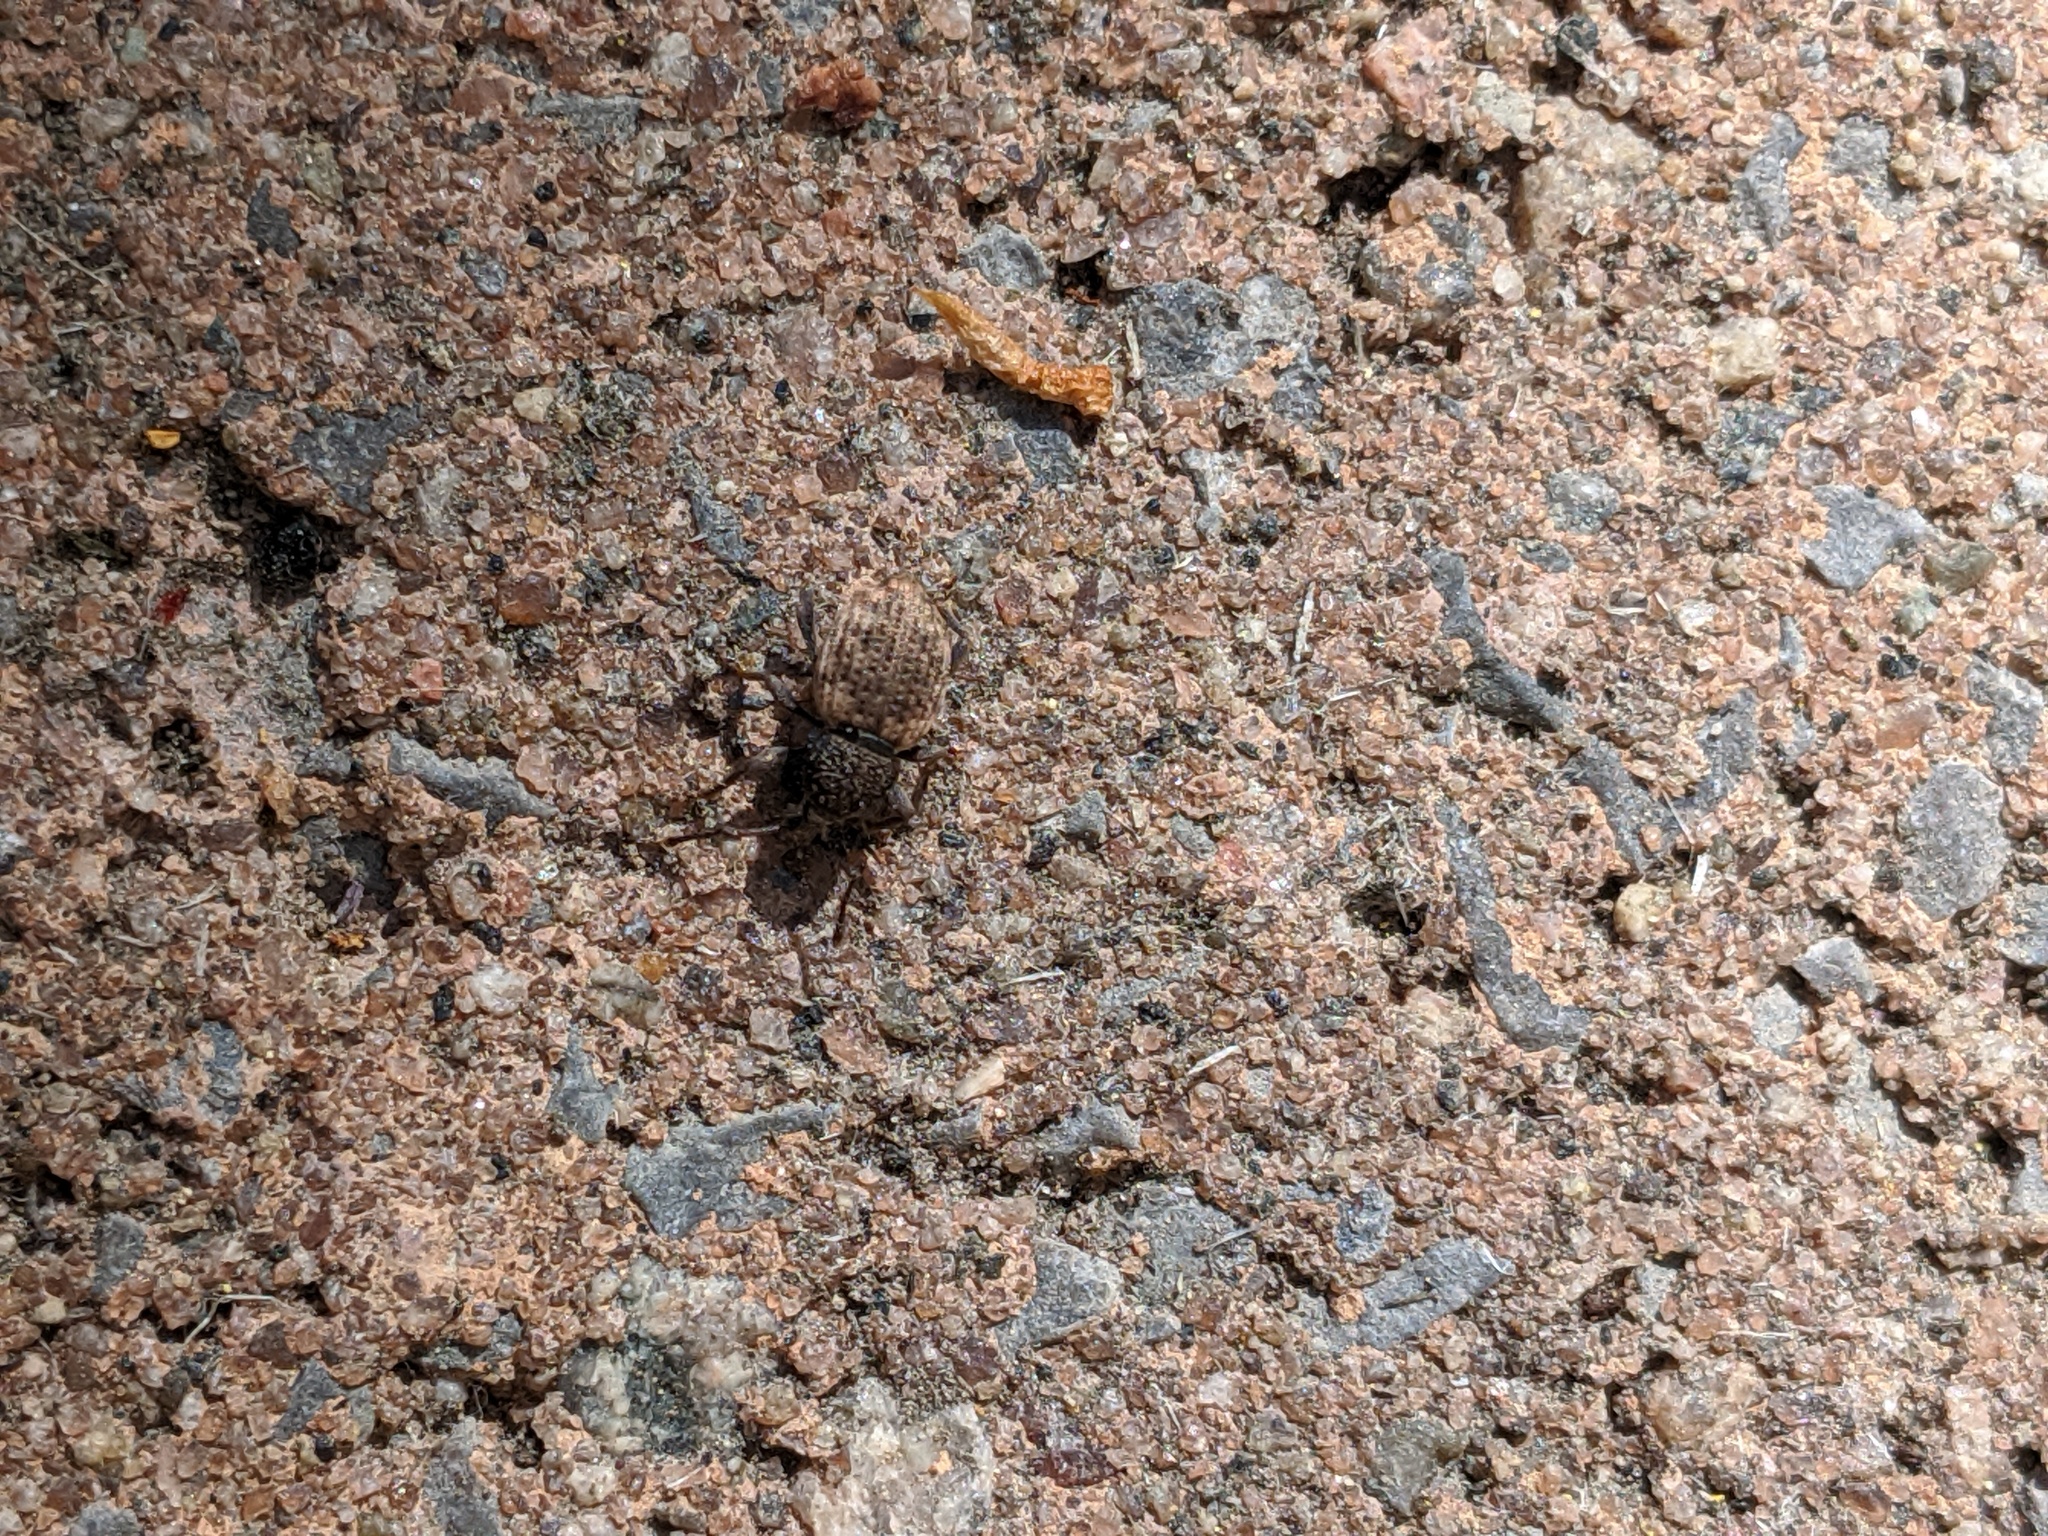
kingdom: Animalia
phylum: Arthropoda
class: Insecta
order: Coleoptera
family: Curculionidae
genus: Otiorhynchus
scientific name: Otiorhynchus raucus
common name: Weevil
